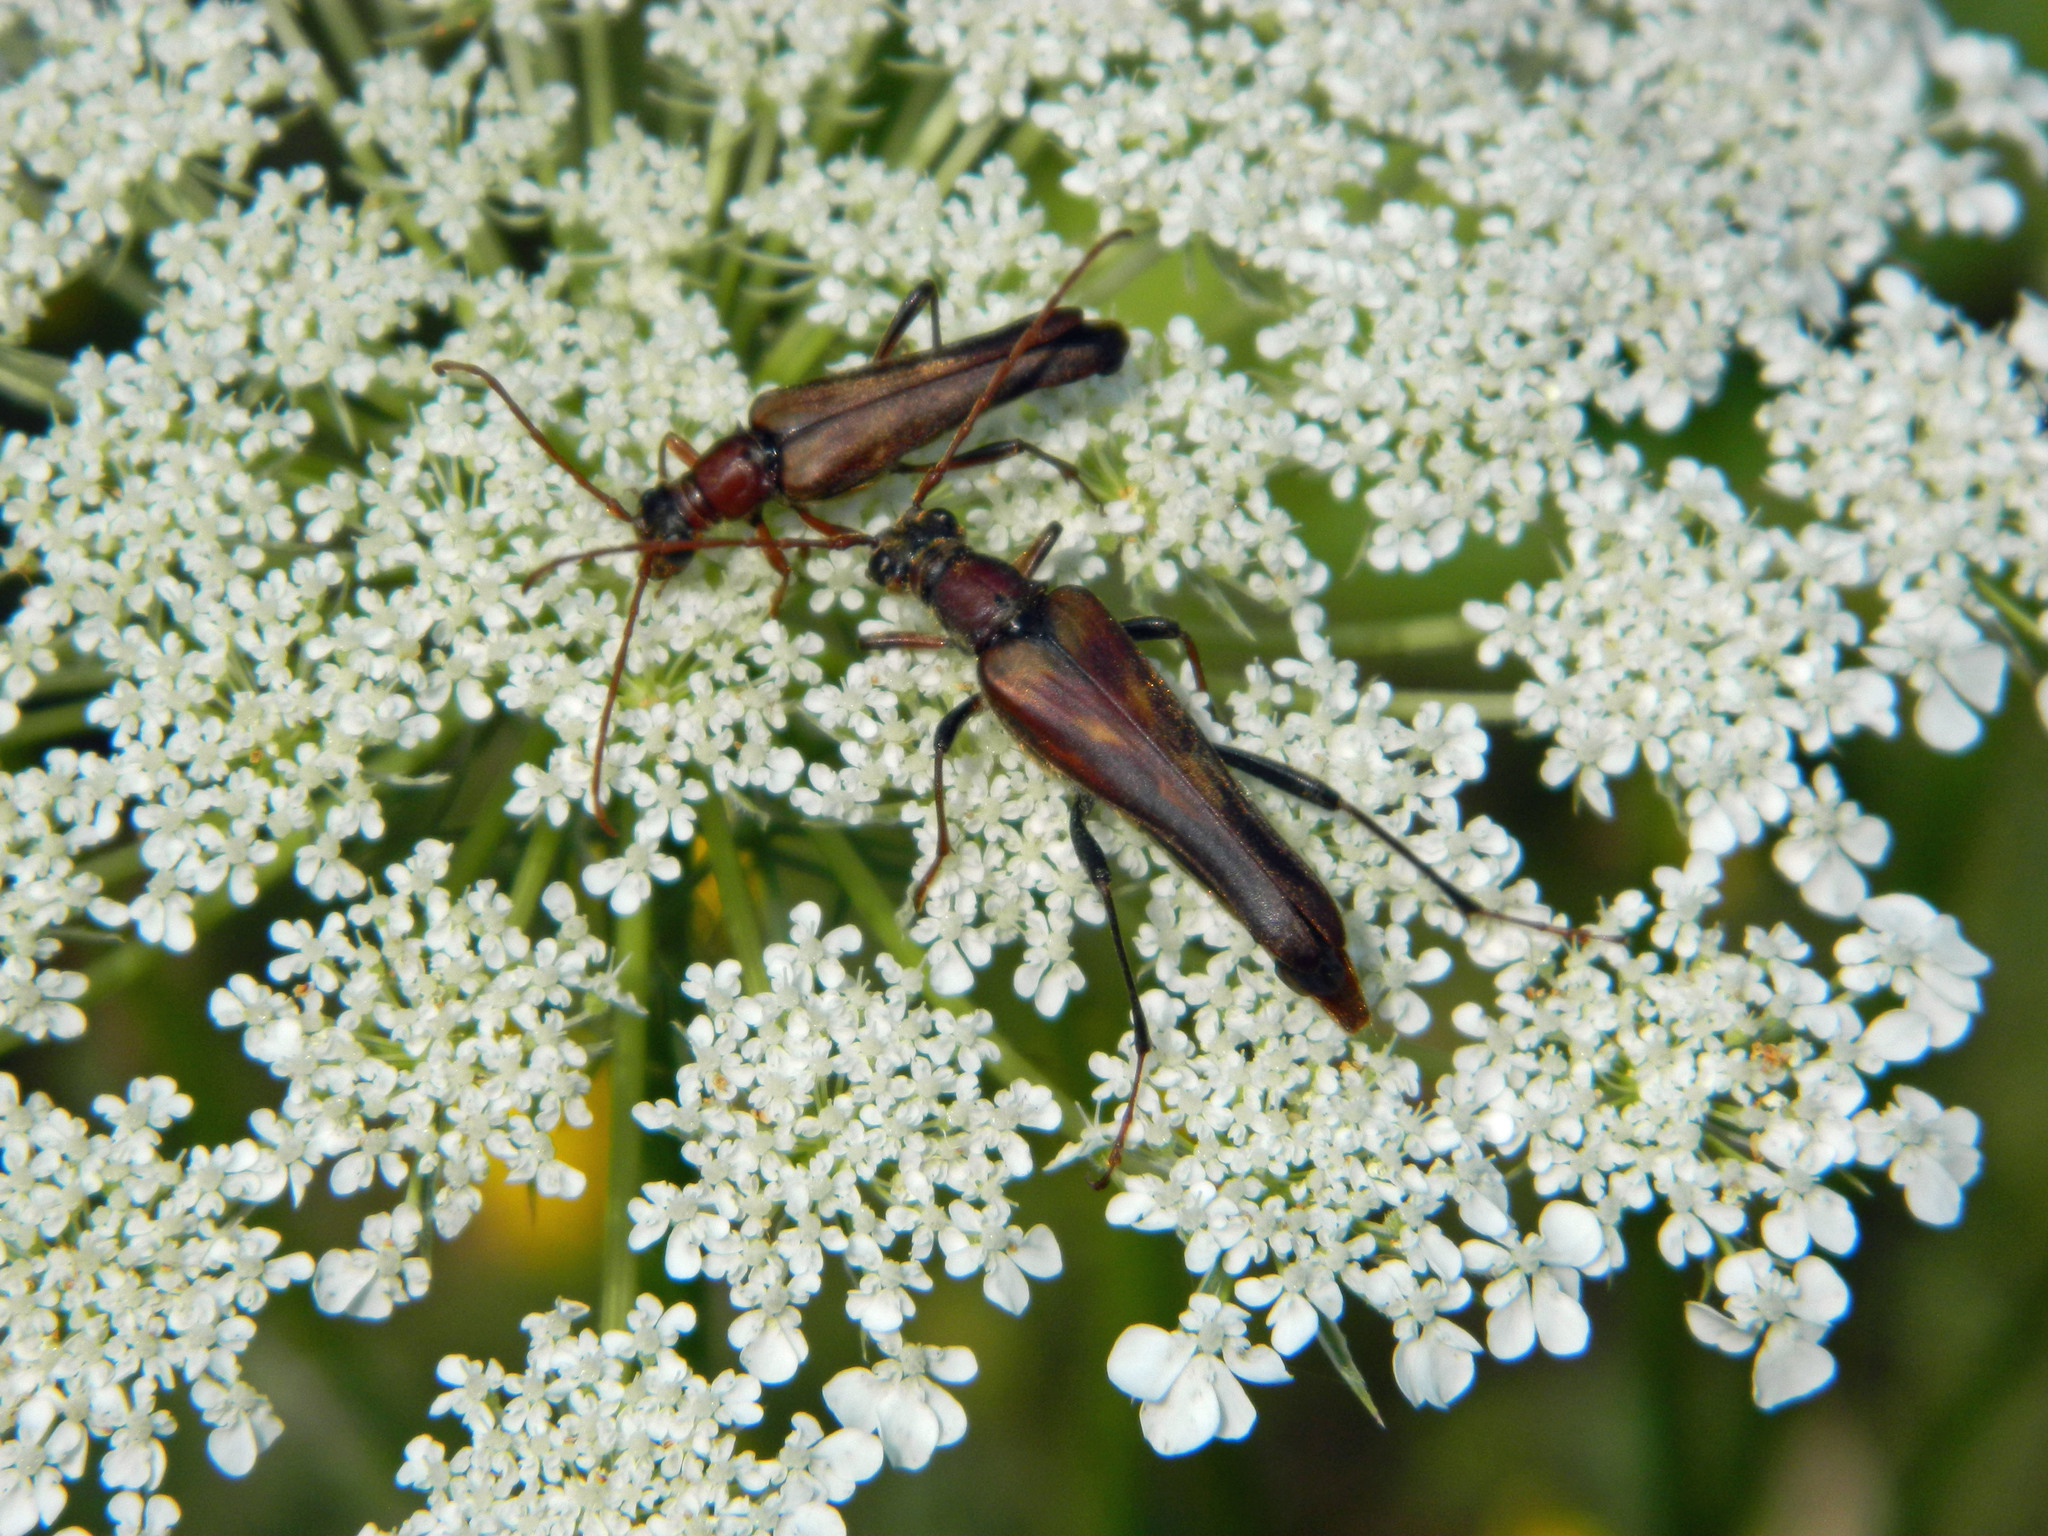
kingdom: Animalia
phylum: Arthropoda
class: Insecta
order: Coleoptera
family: Cerambycidae
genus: Bellamira
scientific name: Bellamira scalaris
